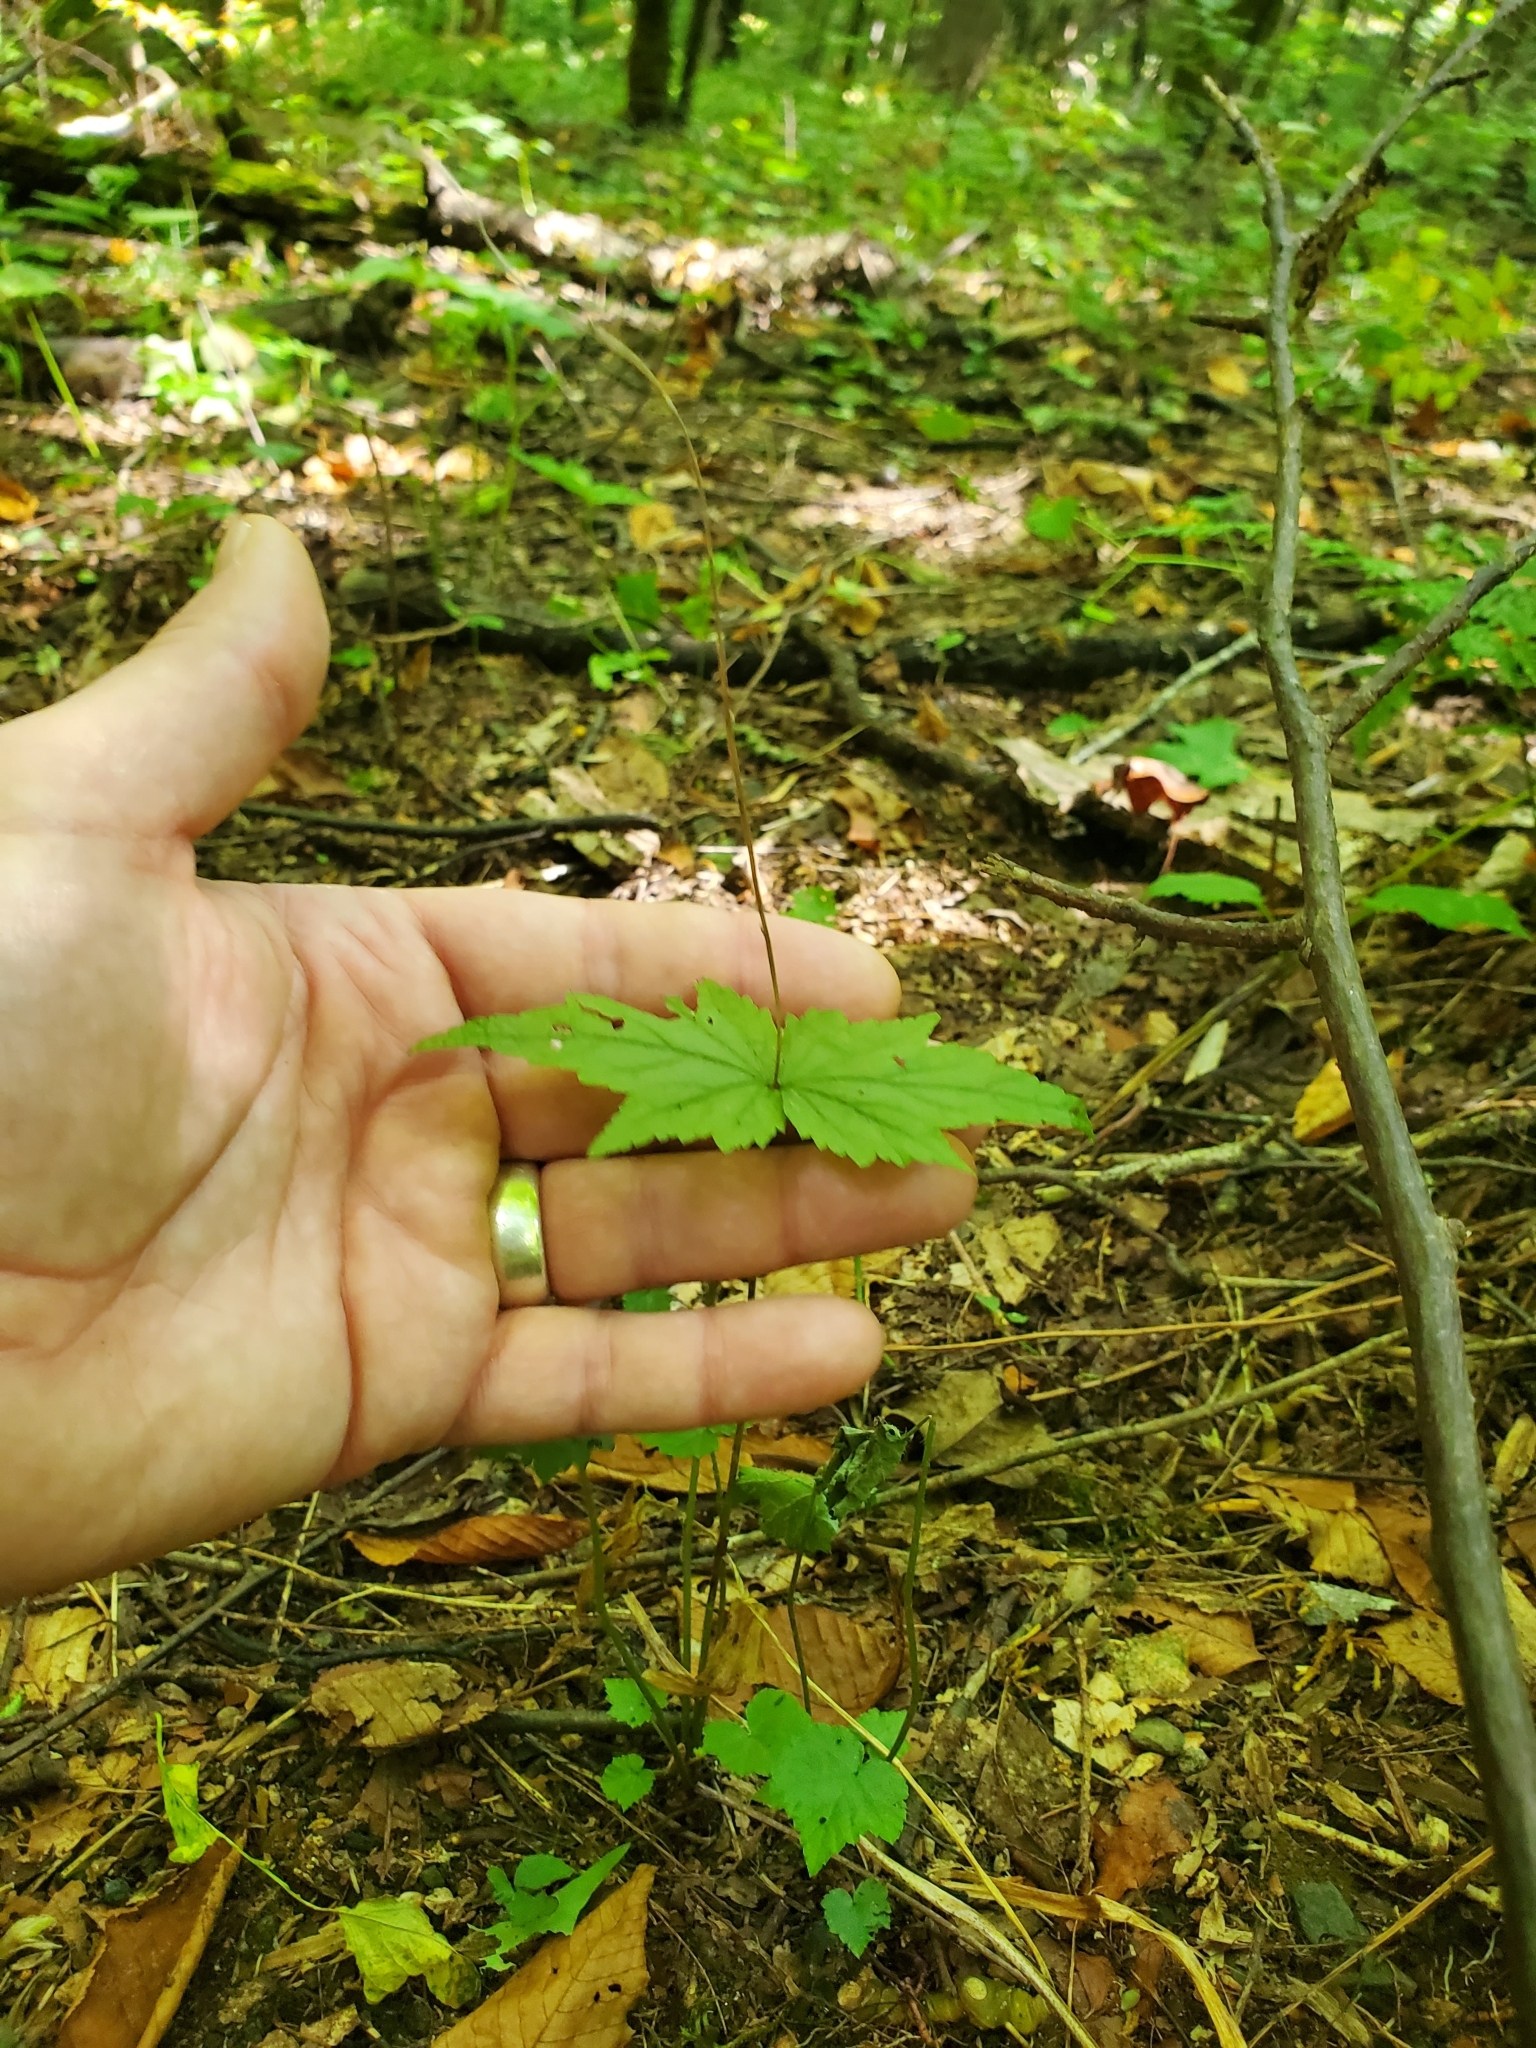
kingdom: Plantae
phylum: Tracheophyta
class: Magnoliopsida
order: Saxifragales
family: Saxifragaceae
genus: Mitella
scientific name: Mitella diphylla
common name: Coolwort
